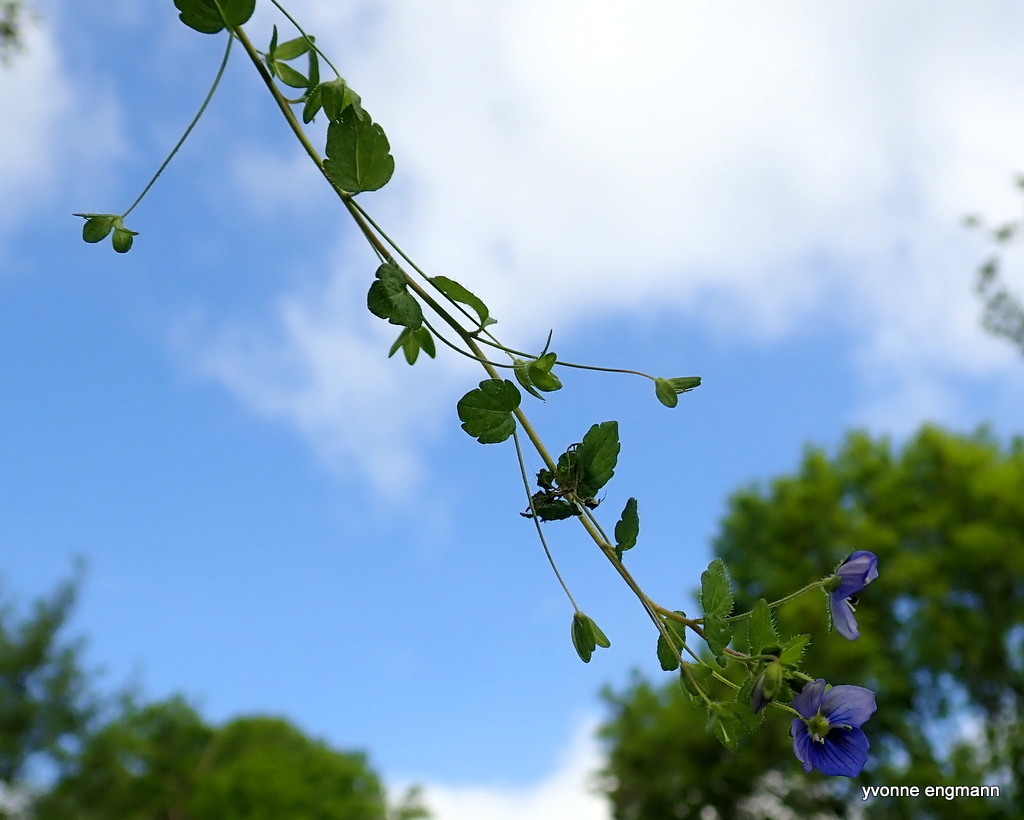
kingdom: Plantae
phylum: Tracheophyta
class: Magnoliopsida
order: Lamiales
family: Plantaginaceae
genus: Veronica
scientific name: Veronica filiformis
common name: Slender speedwell
